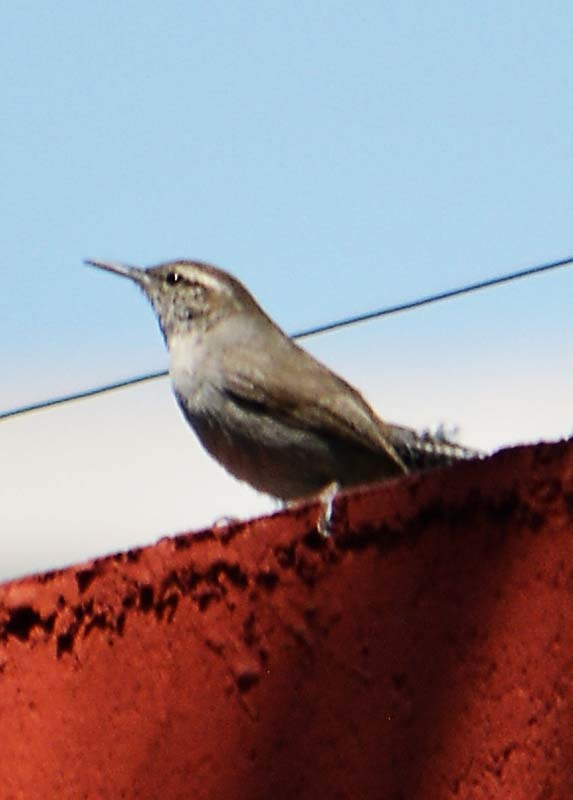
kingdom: Animalia
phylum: Chordata
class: Aves
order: Passeriformes
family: Troglodytidae
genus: Thryomanes
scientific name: Thryomanes bewickii
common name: Bewick's wren
